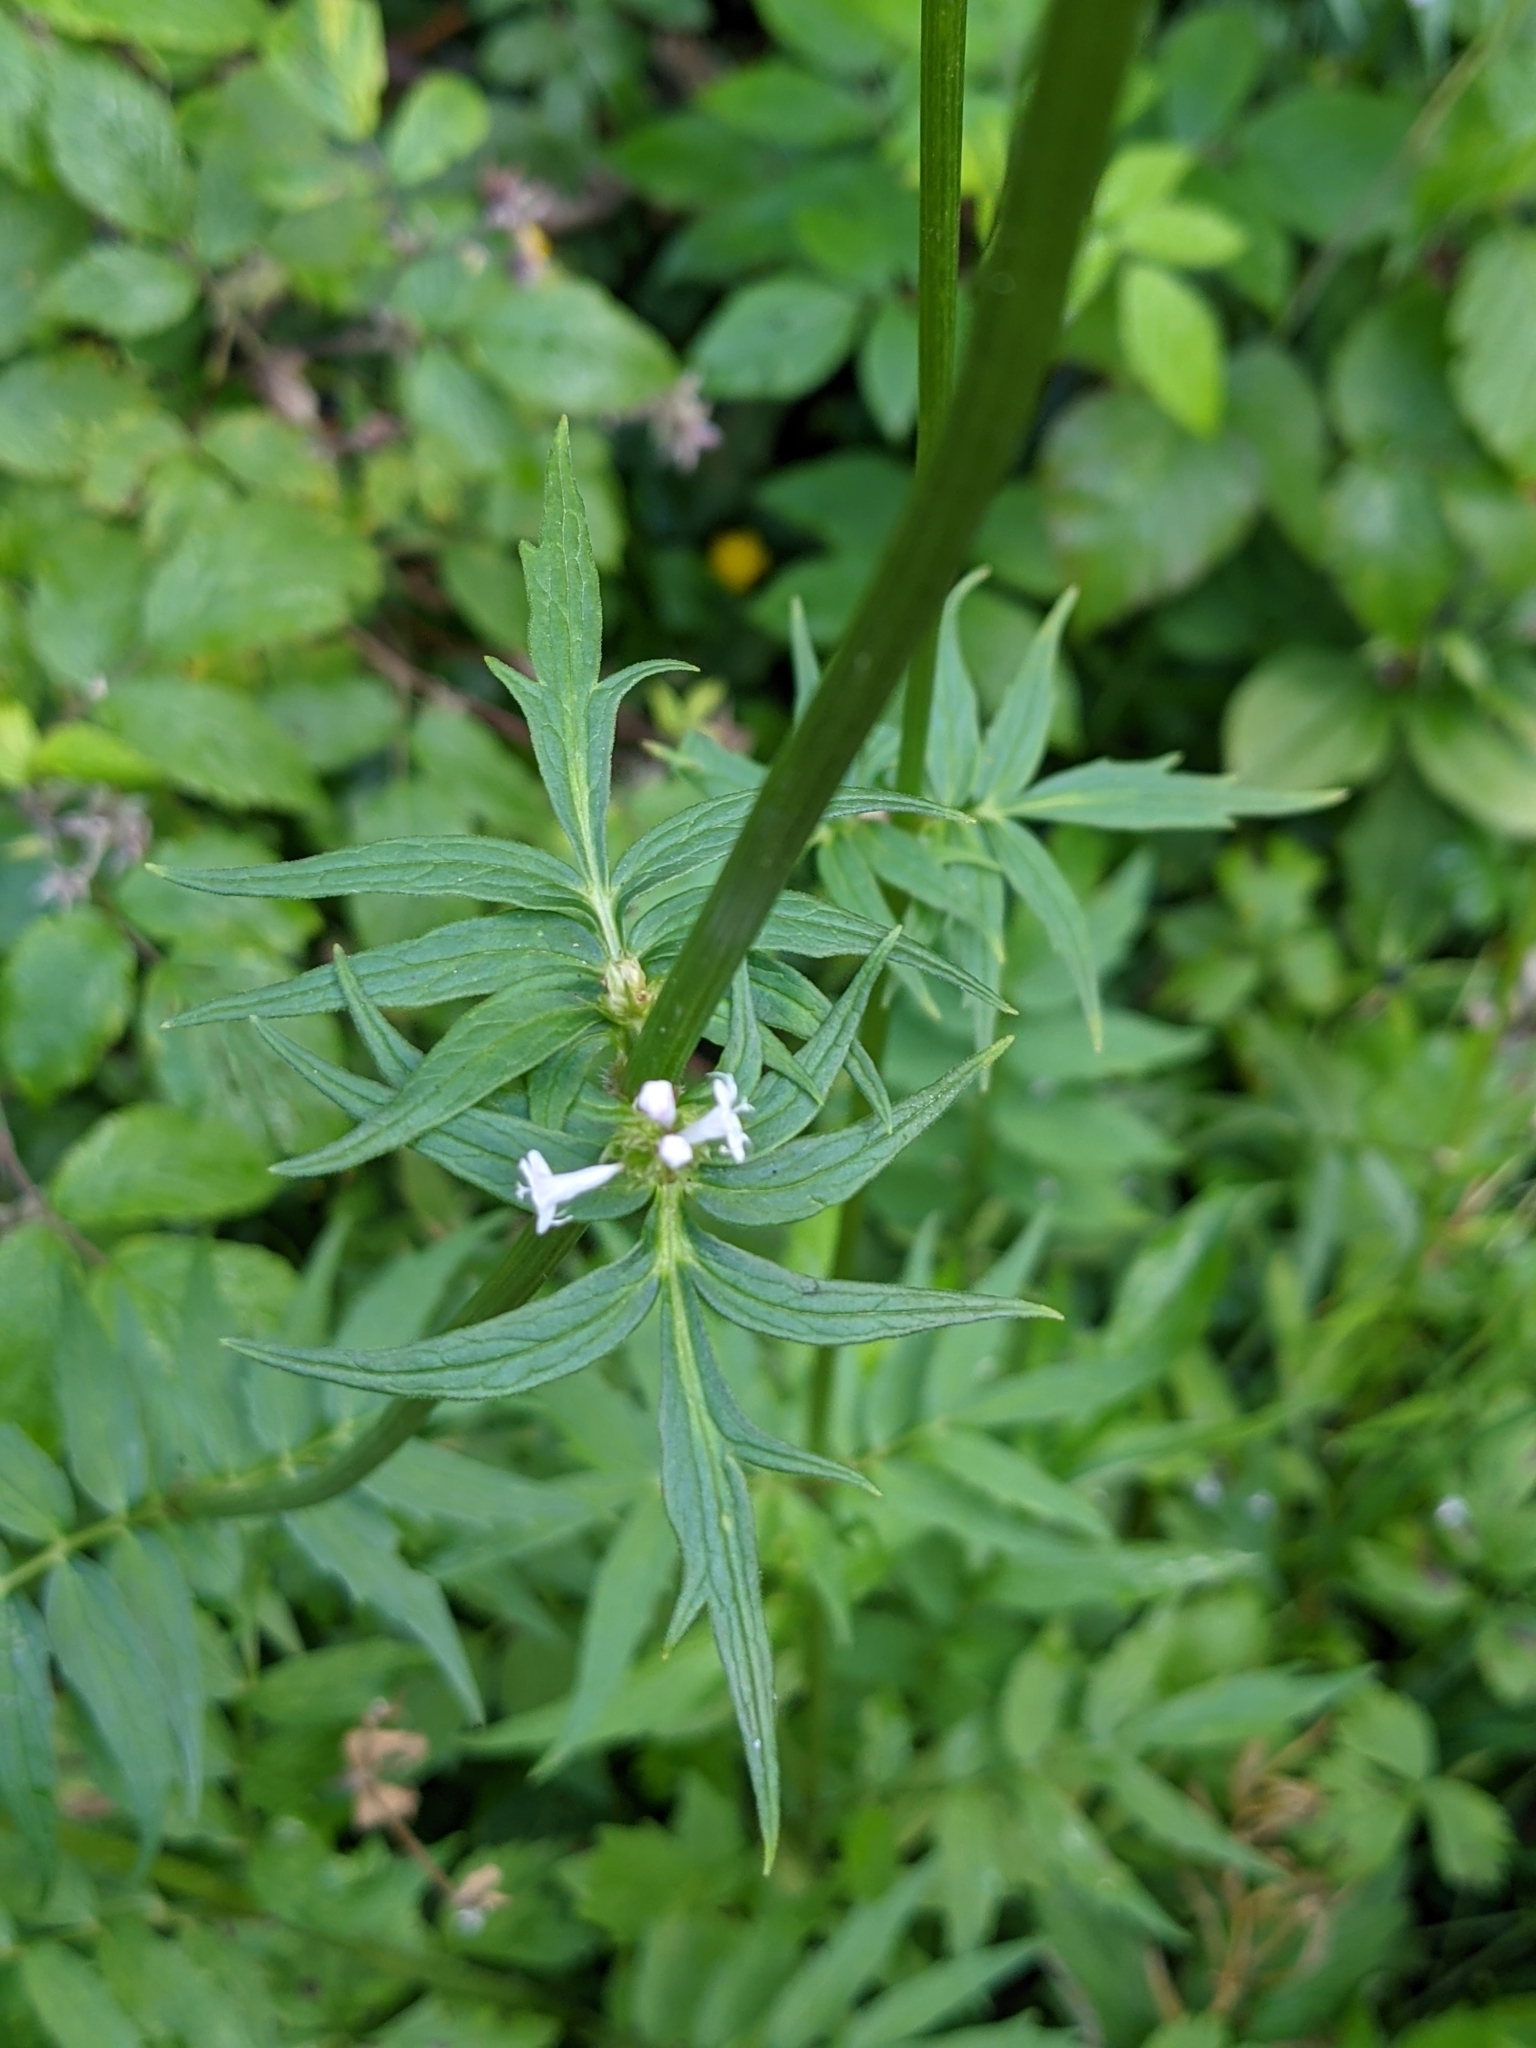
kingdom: Plantae
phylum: Tracheophyta
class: Magnoliopsida
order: Dipsacales
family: Caprifoliaceae
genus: Valeriana
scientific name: Valeriana officinalis
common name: Common valerian
